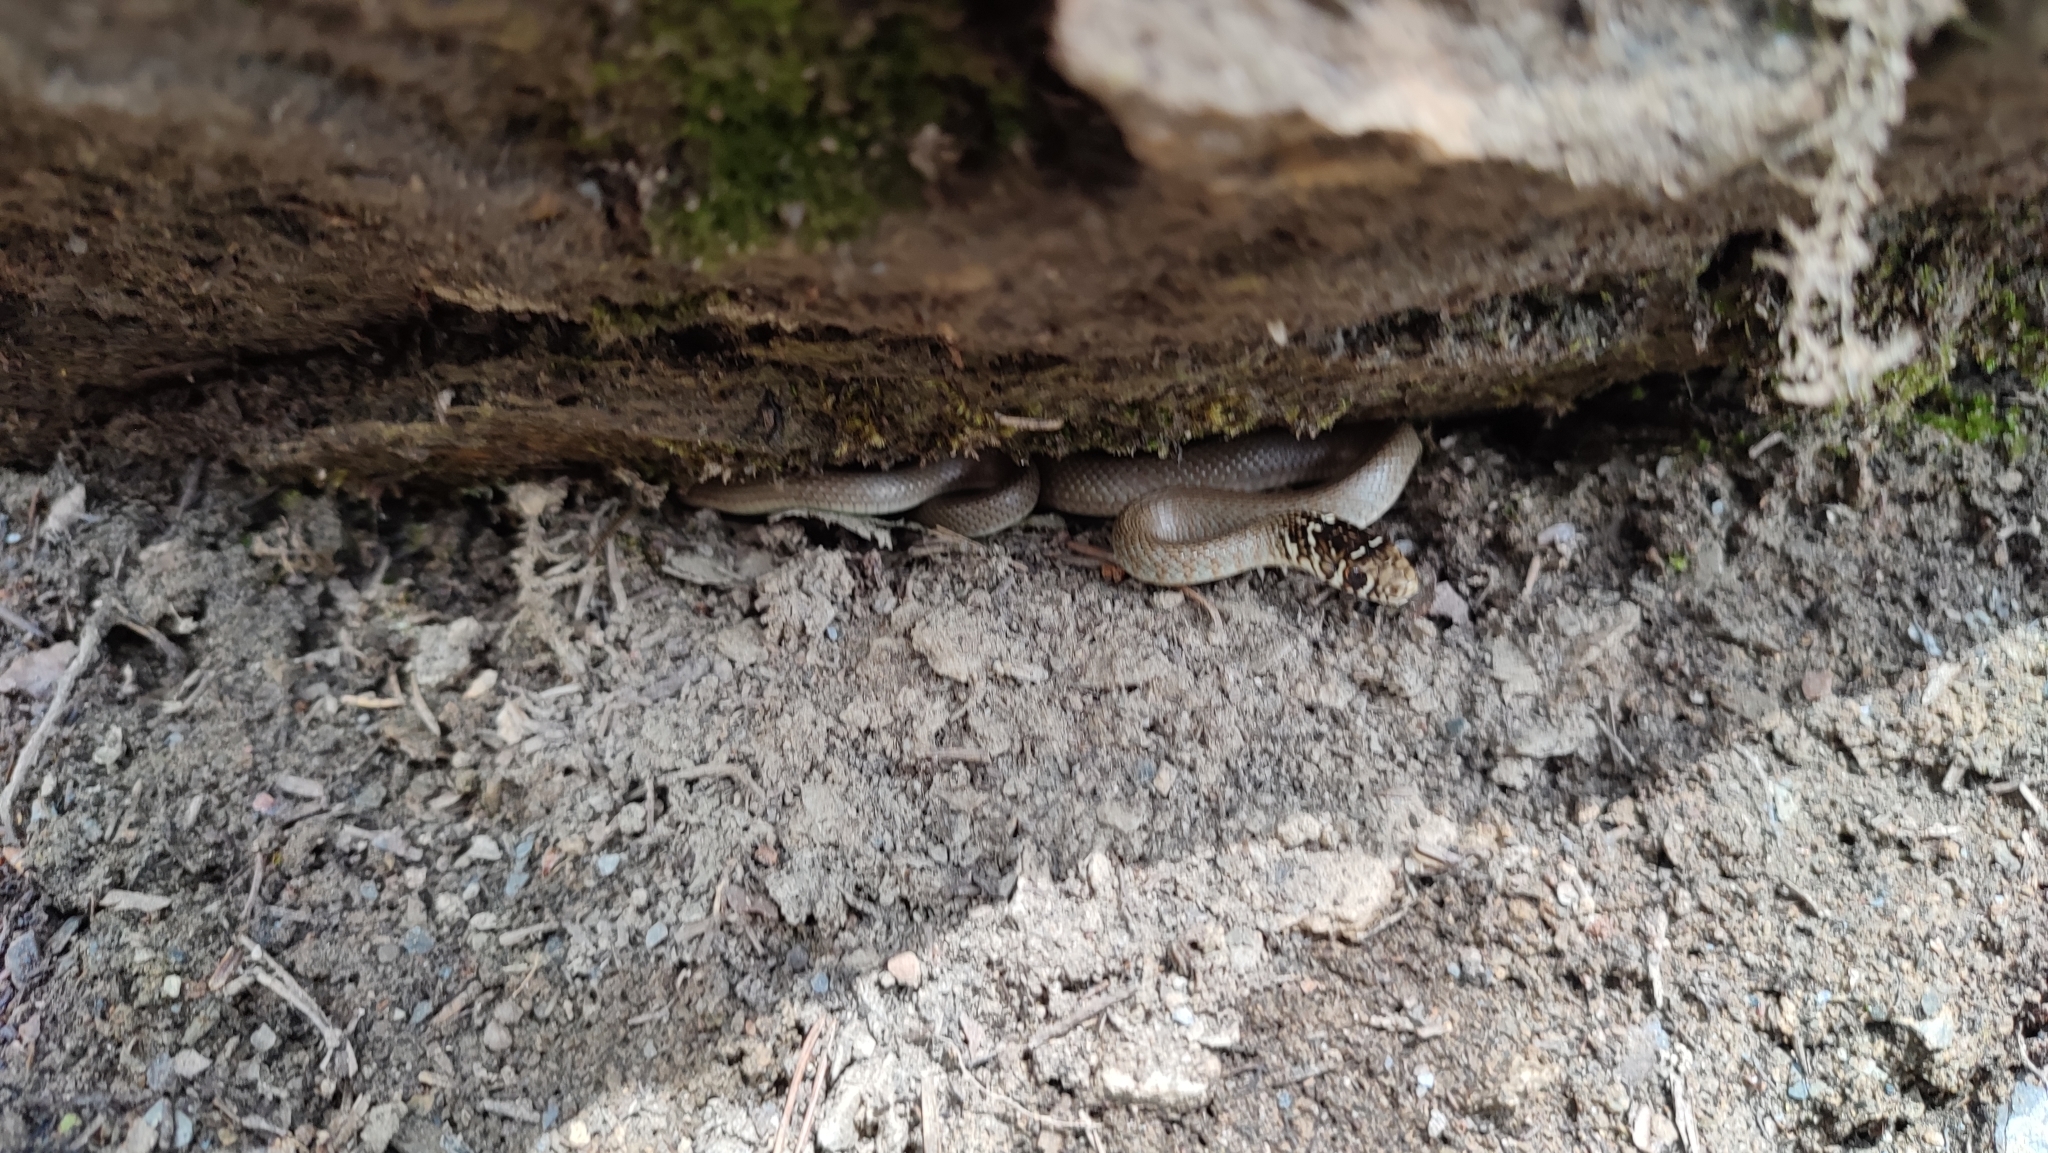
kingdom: Animalia
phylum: Chordata
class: Squamata
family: Colubridae
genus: Hierophis
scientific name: Hierophis viridiflavus
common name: Green whip snake
